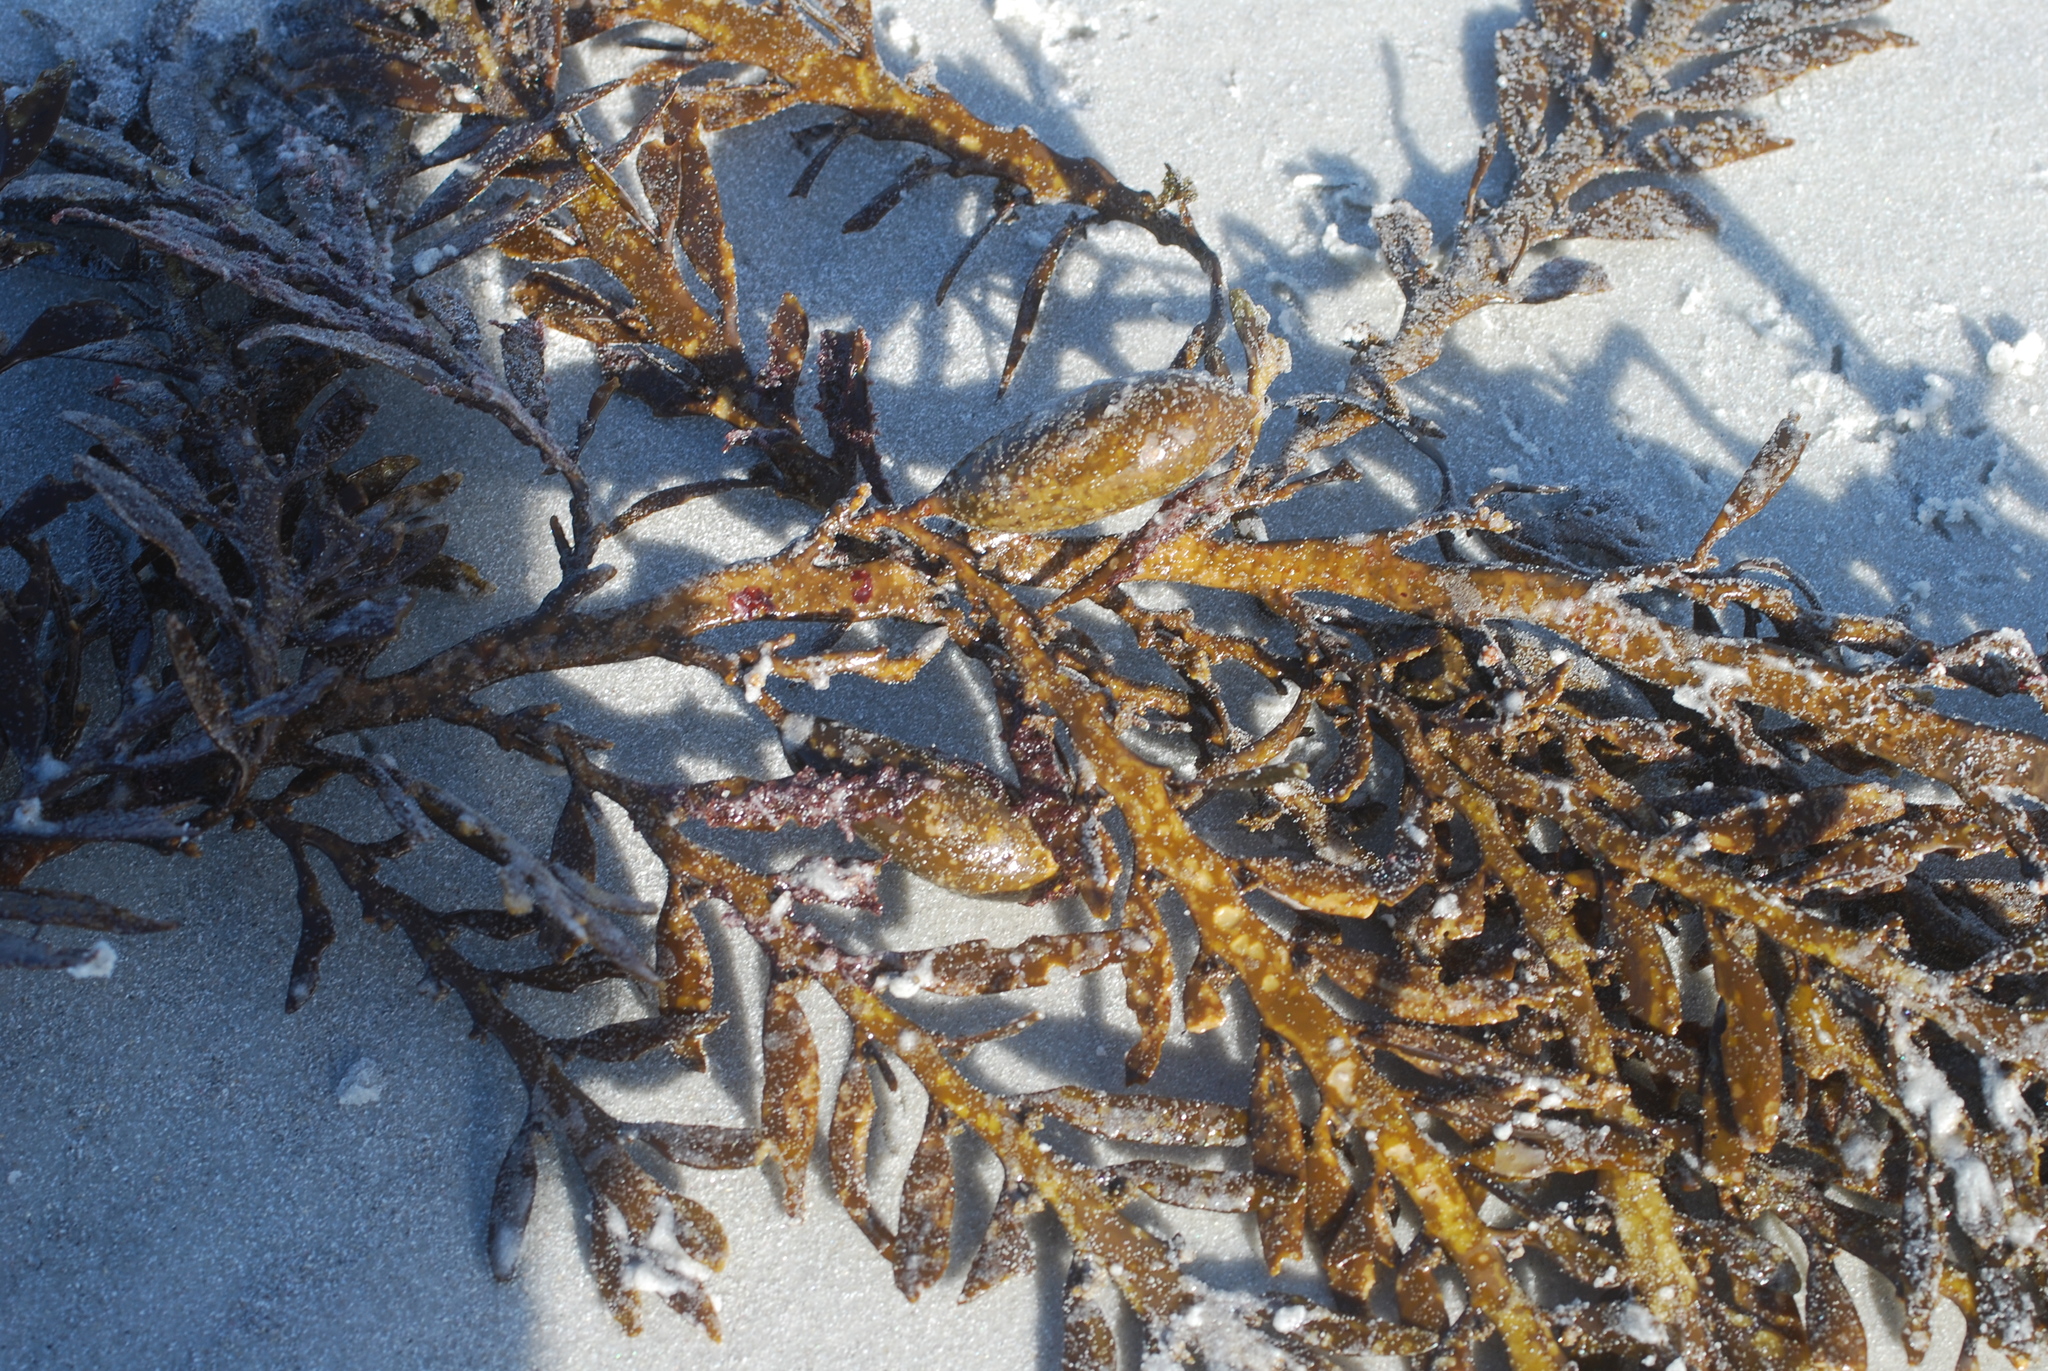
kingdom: Chromista
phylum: Ochrophyta
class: Phaeophyceae
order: Fucales
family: Sargassaceae
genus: Carpophyllum
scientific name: Carpophyllum maschalocarpum
